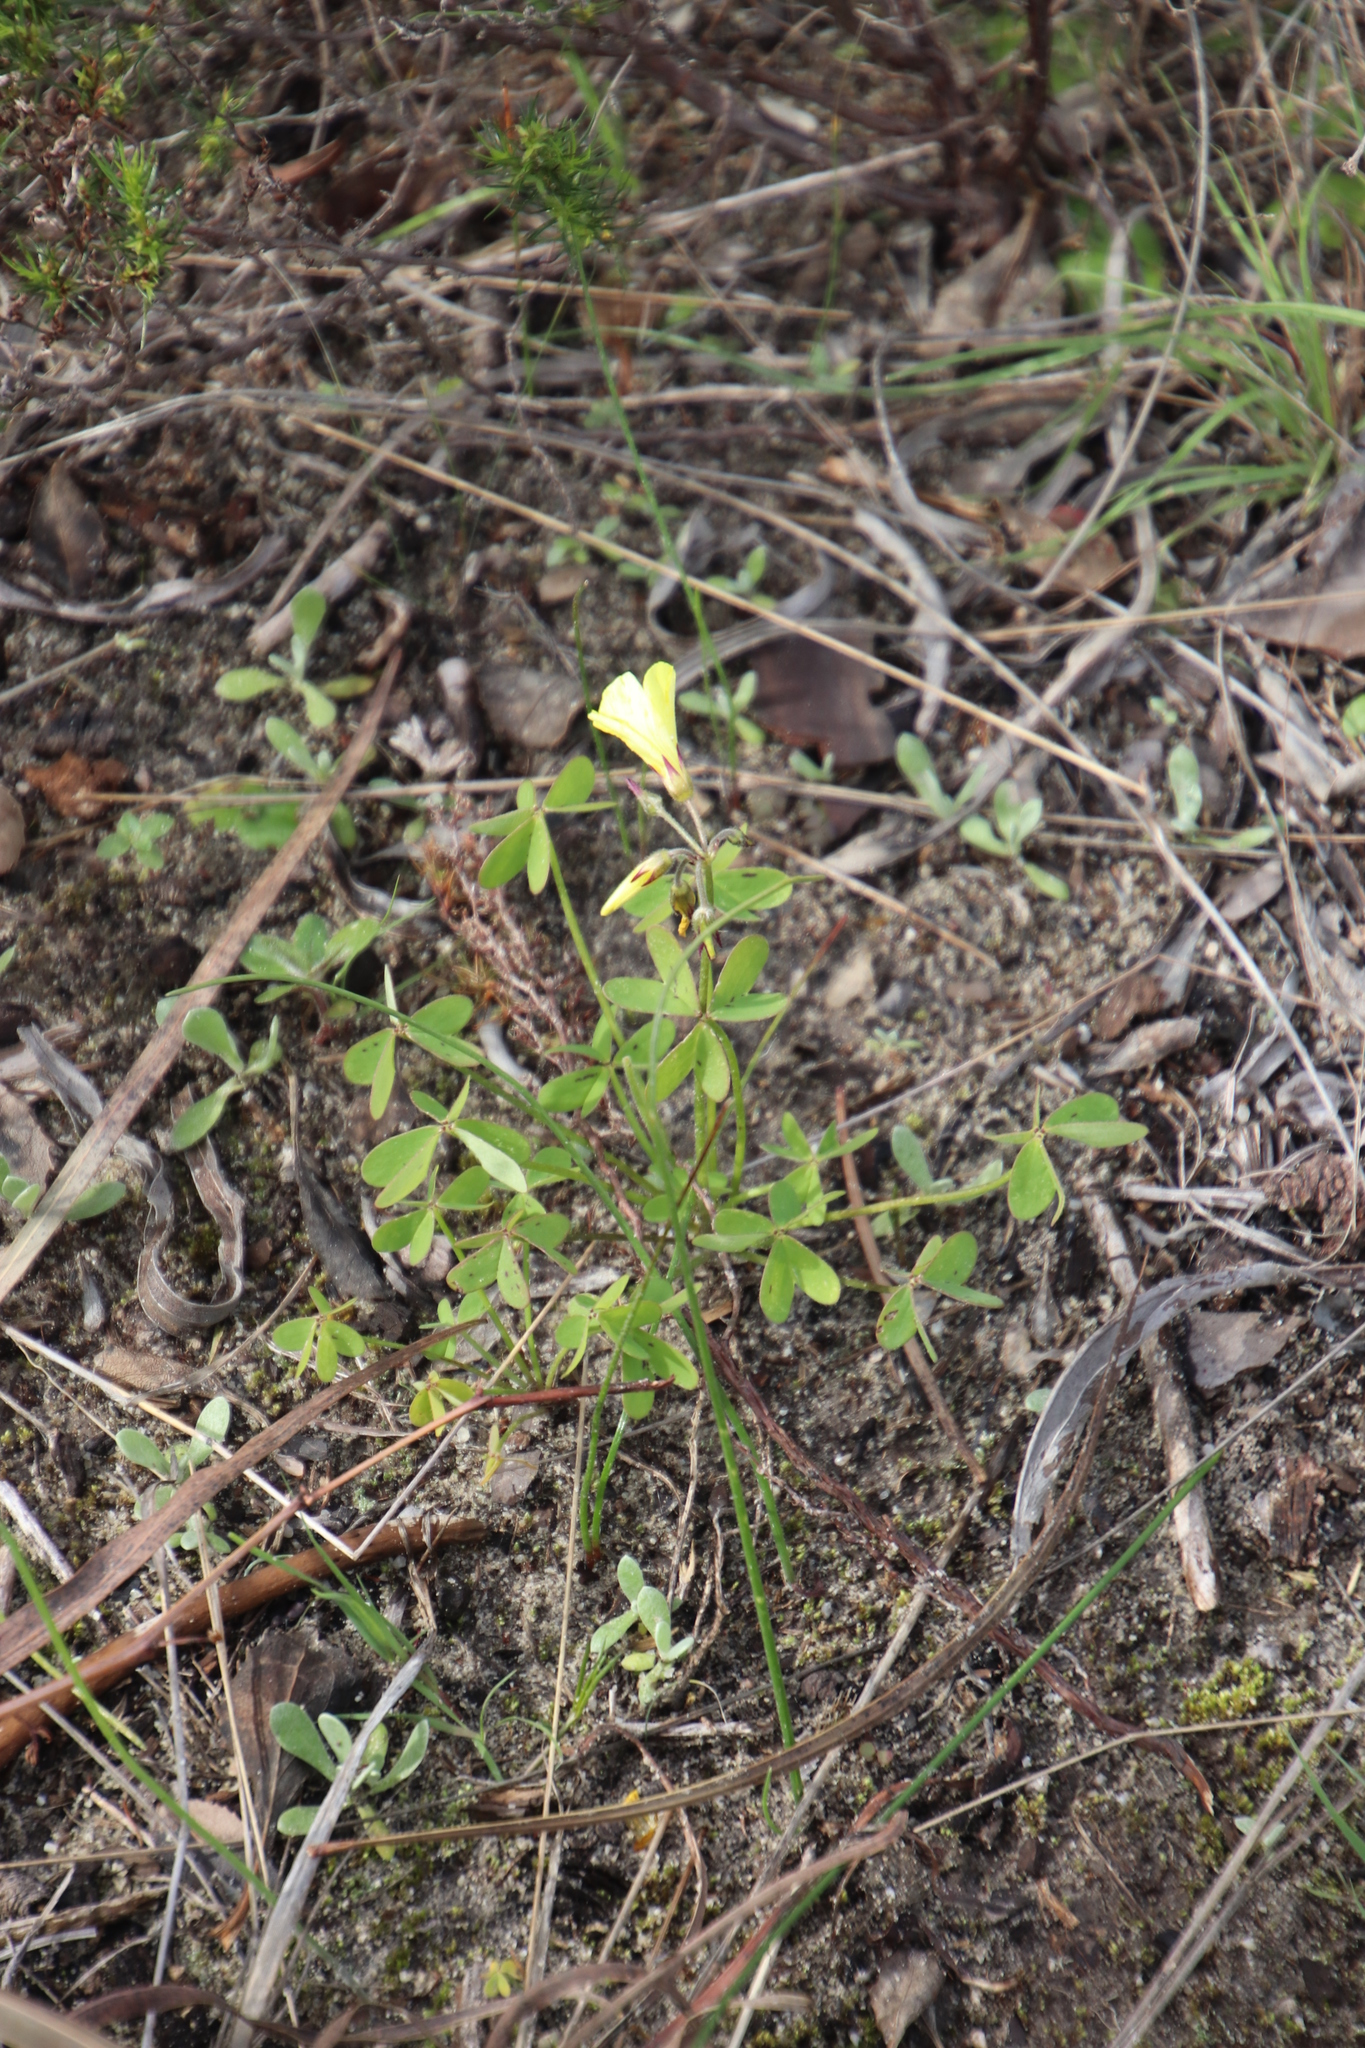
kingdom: Plantae
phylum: Tracheophyta
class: Magnoliopsida
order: Oxalidales
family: Oxalidaceae
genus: Oxalis
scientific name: Oxalis pes-caprae
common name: Bermuda-buttercup
